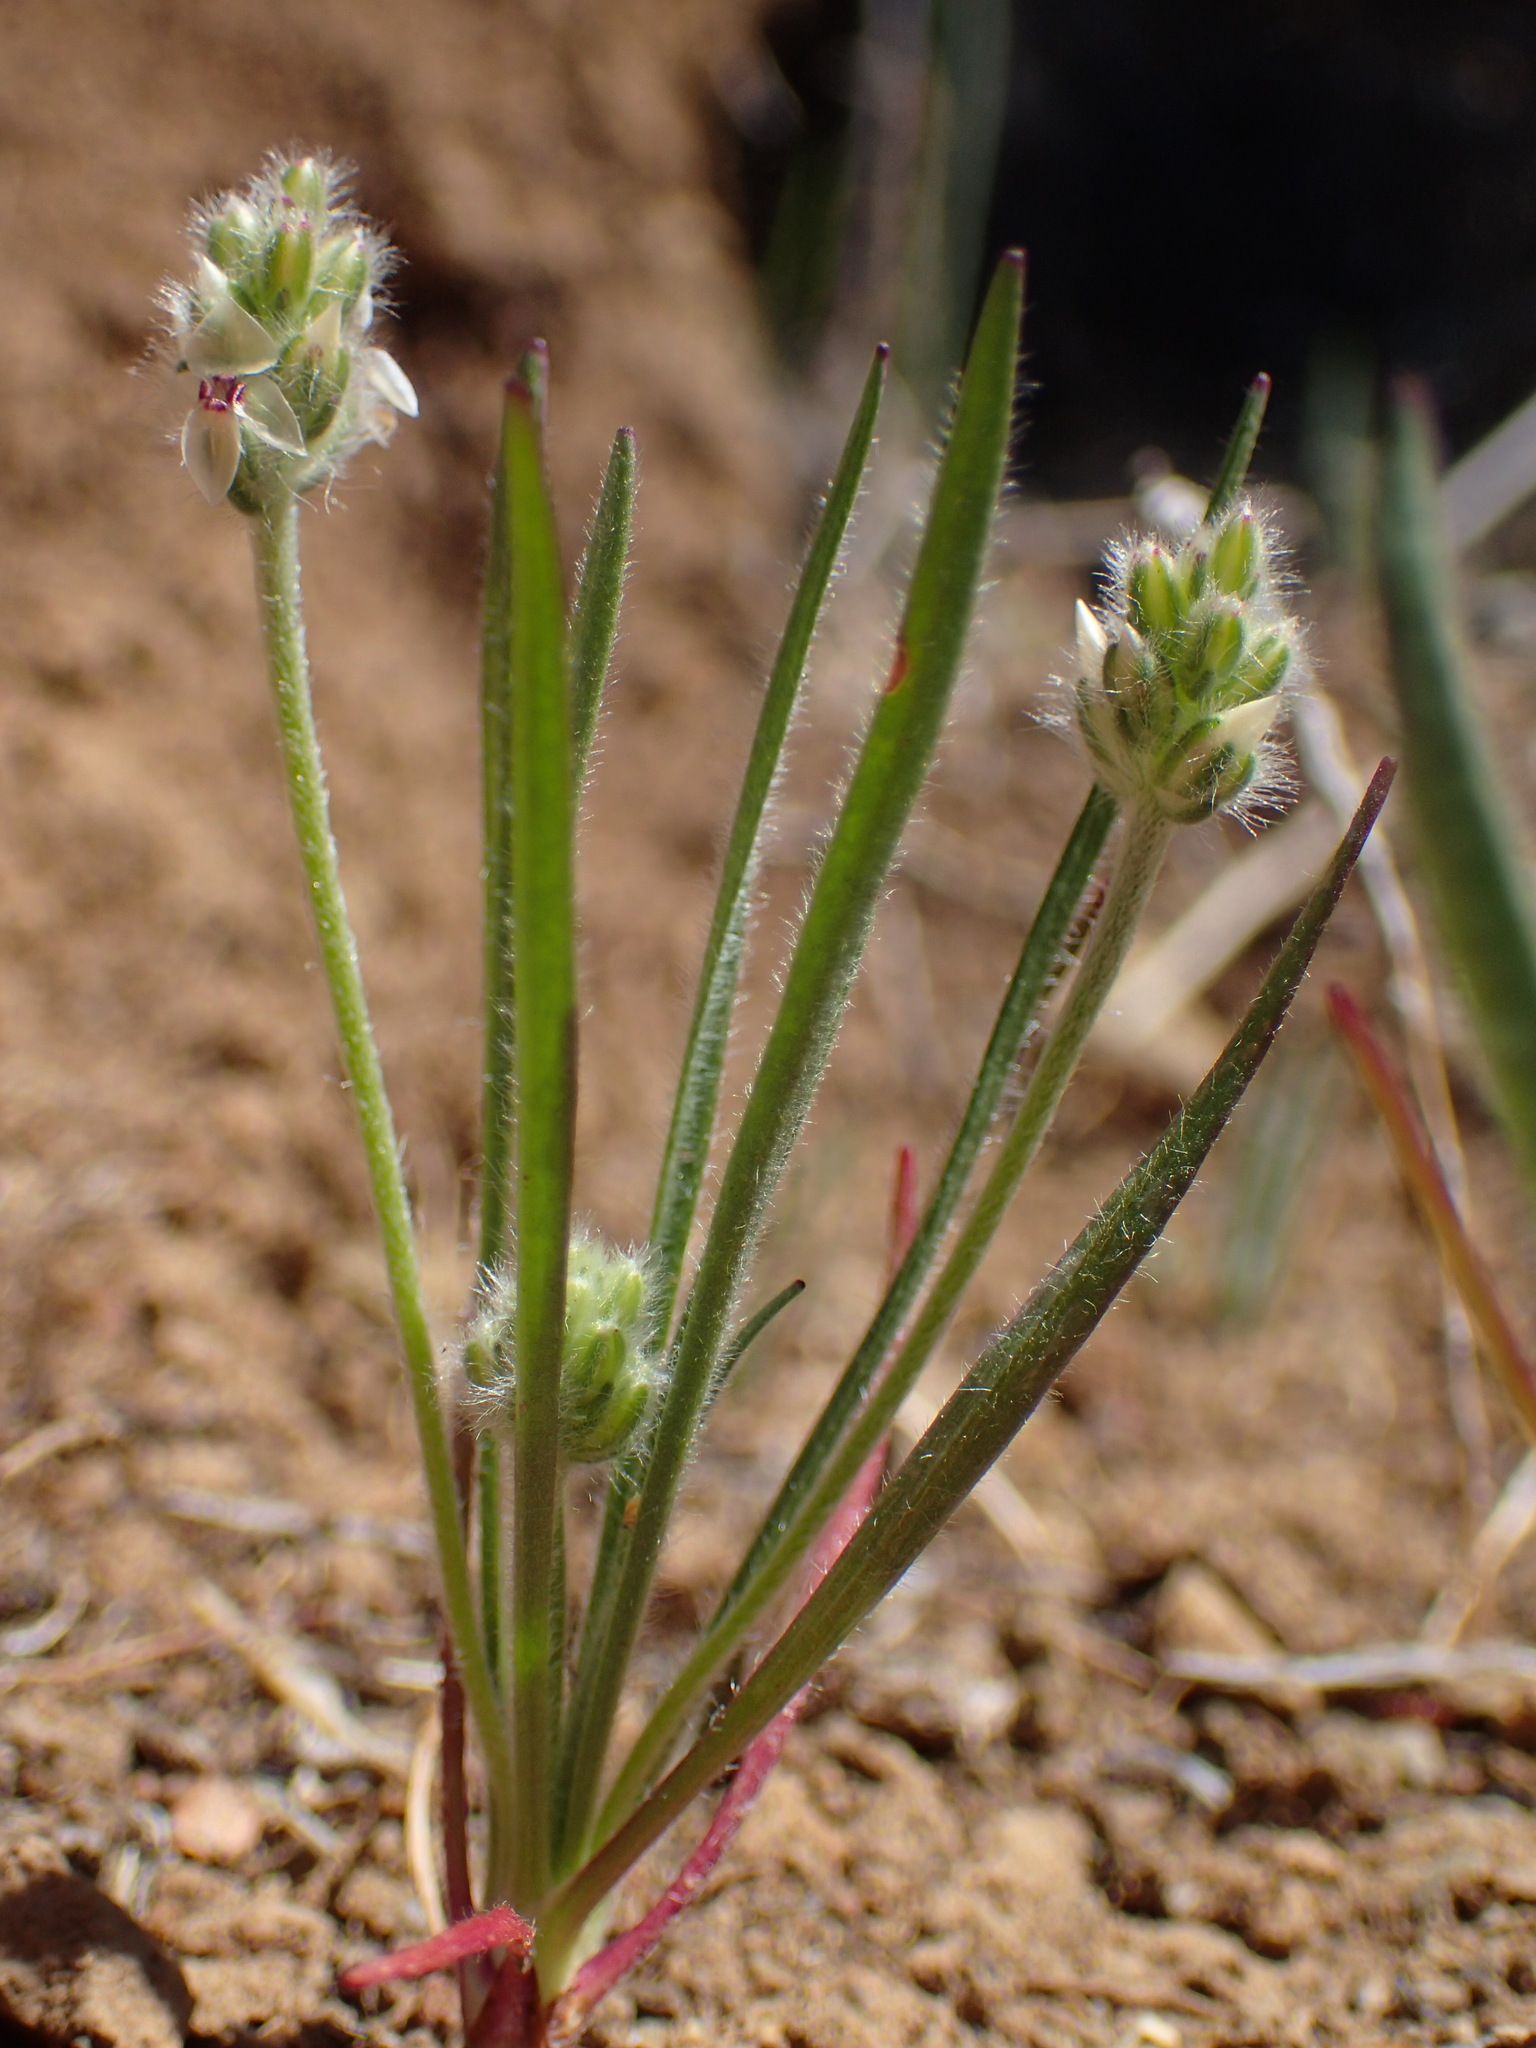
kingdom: Plantae
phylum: Tracheophyta
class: Magnoliopsida
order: Lamiales
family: Plantaginaceae
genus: Plantago
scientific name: Plantago erecta
